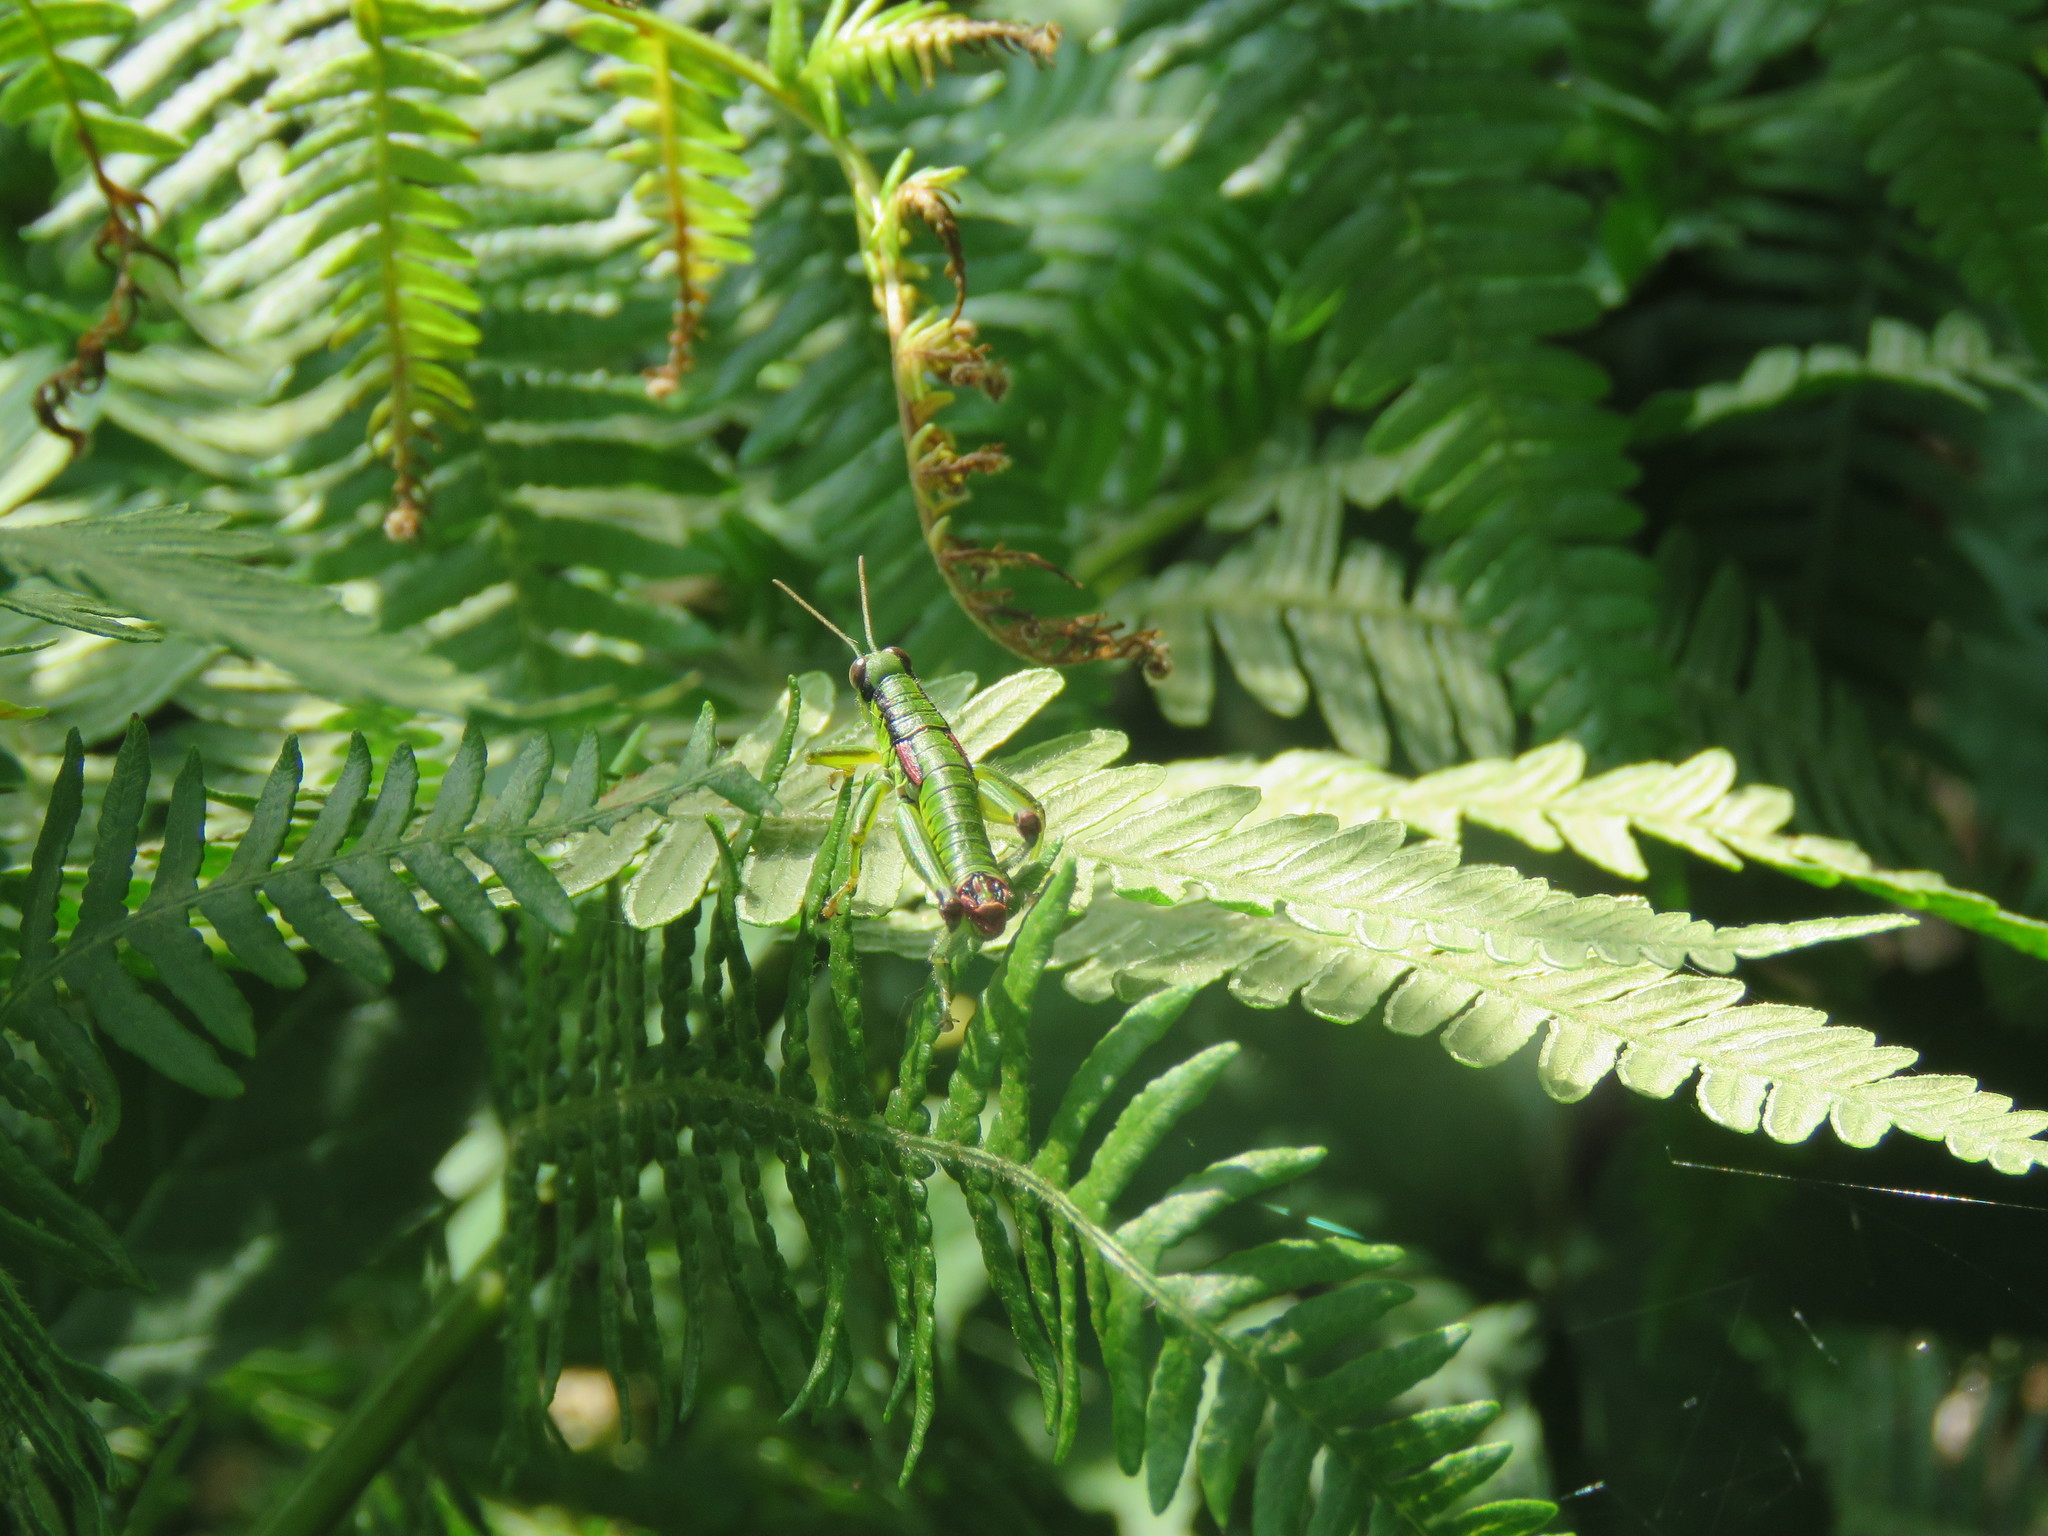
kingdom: Animalia
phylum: Arthropoda
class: Insecta
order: Orthoptera
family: Acrididae
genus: Odontopodisma
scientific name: Odontopodisma decipiens
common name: Cheating mountain grasshopper
